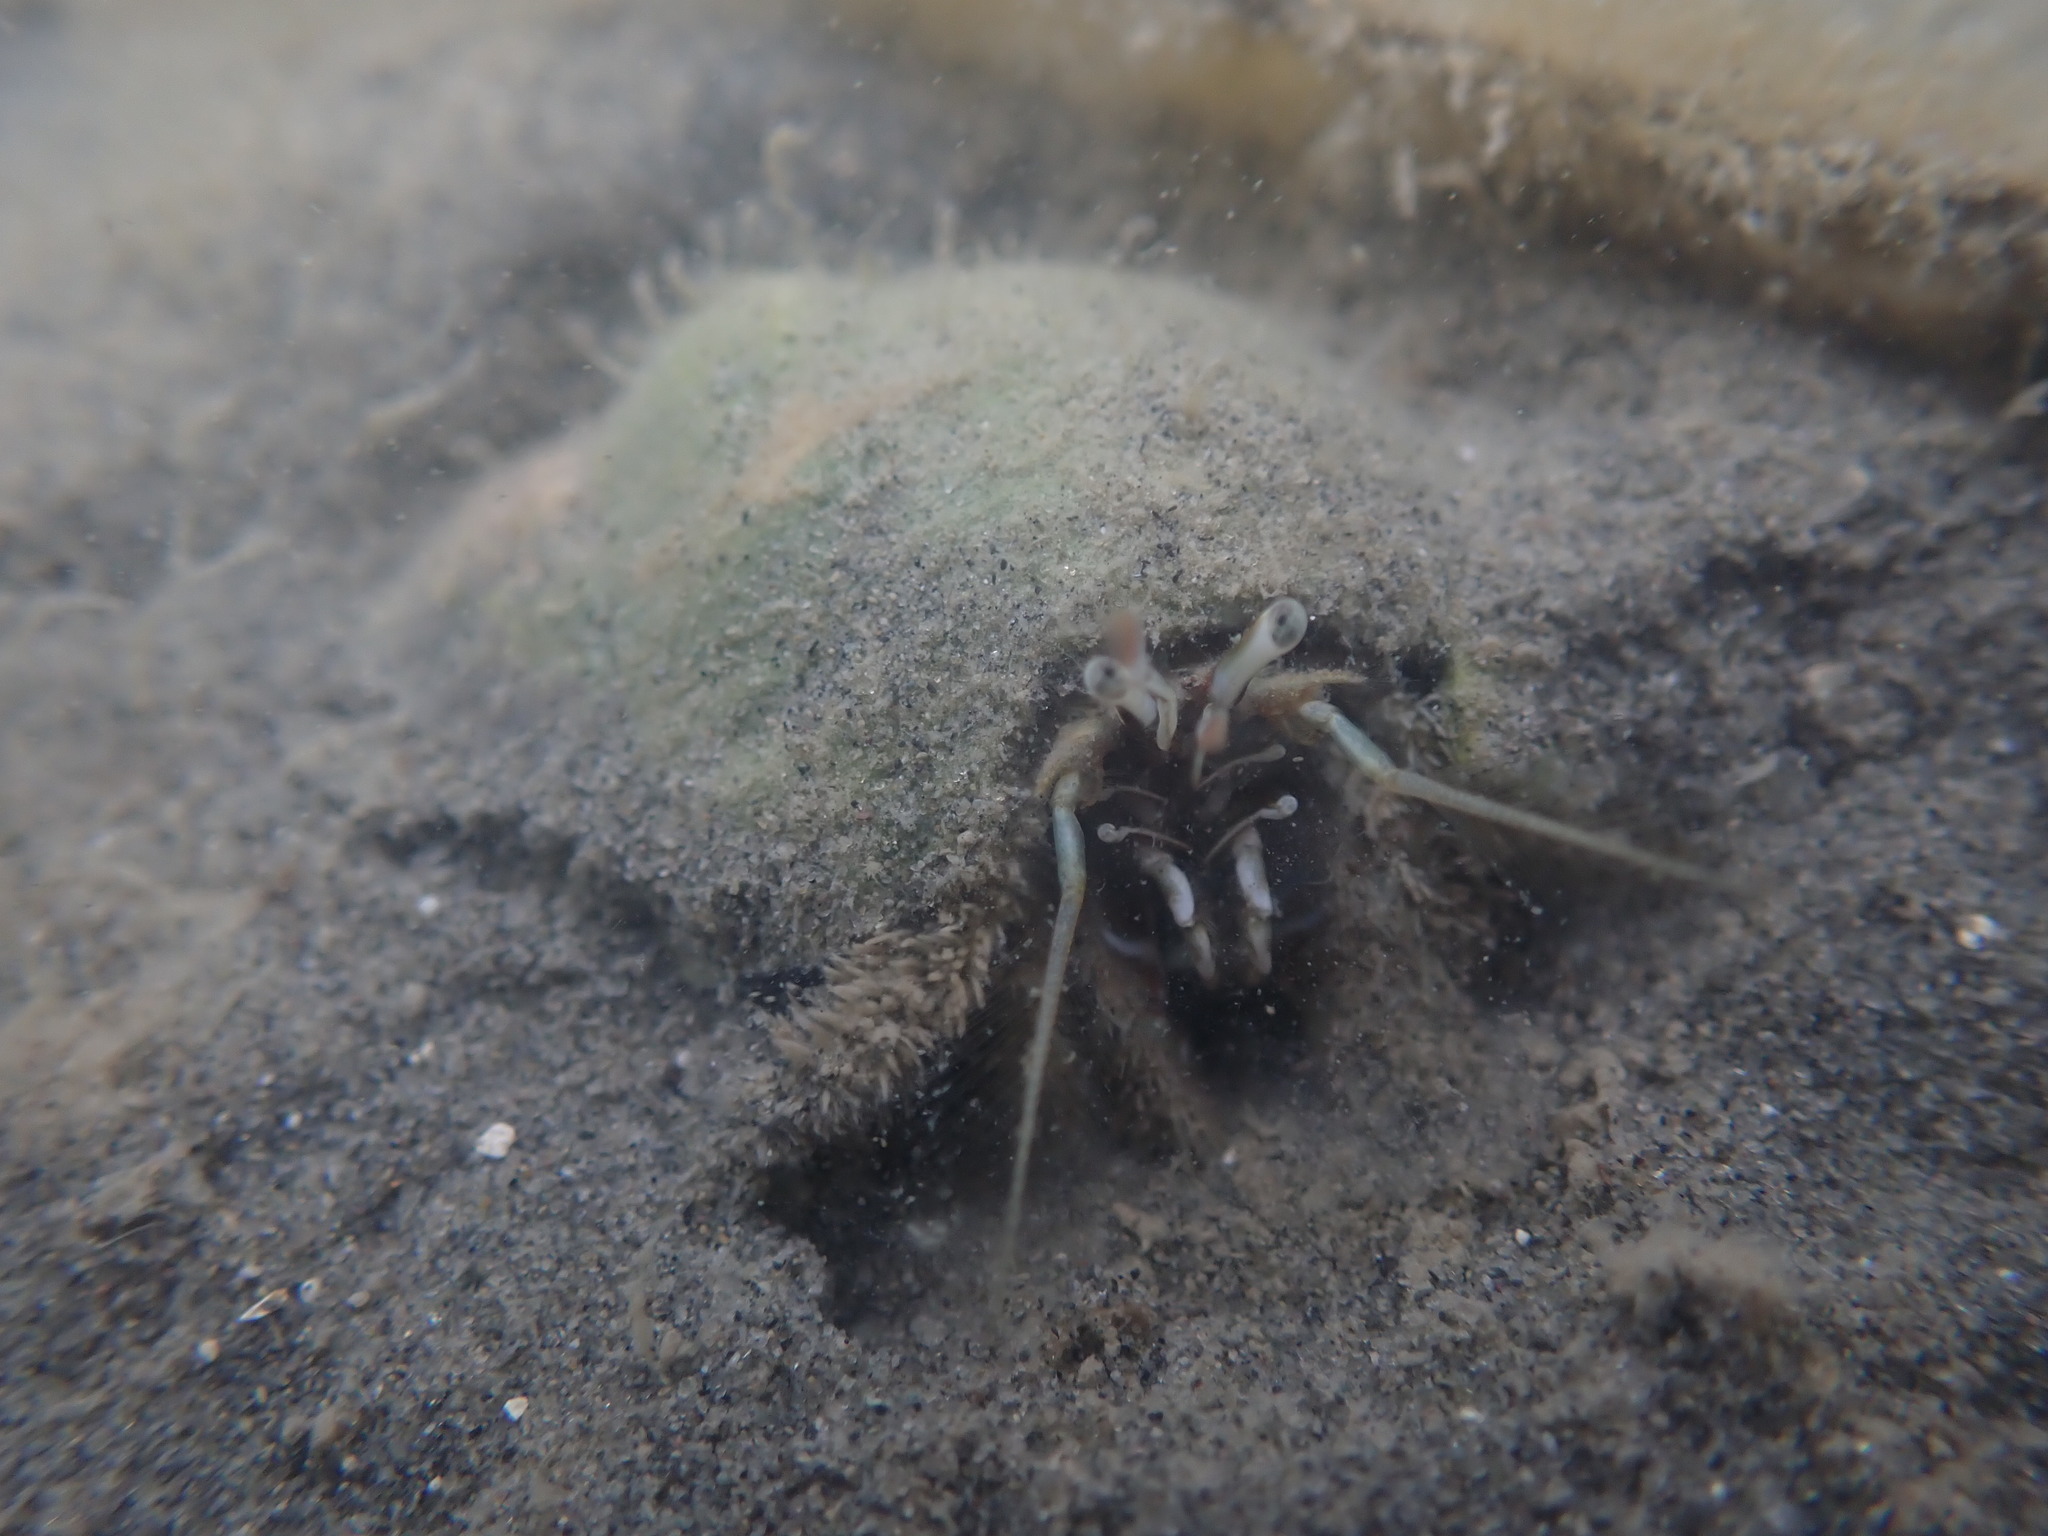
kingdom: Animalia
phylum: Arthropoda
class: Malacostraca
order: Decapoda
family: Diogenidae
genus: Areopaguristes
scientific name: Areopaguristes setosus
